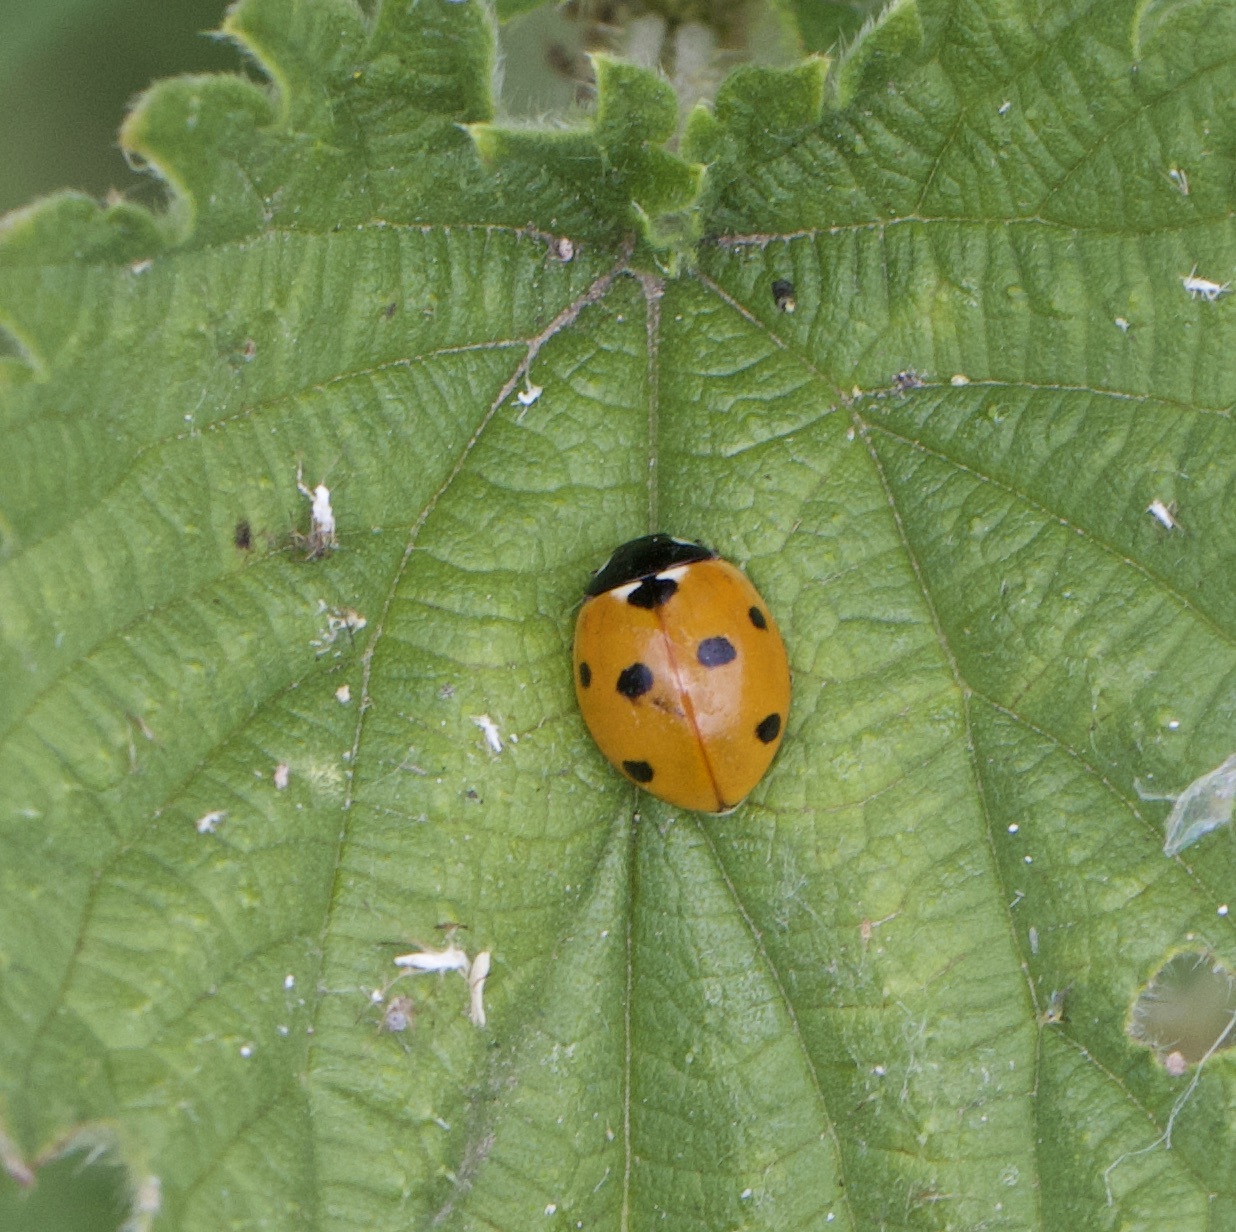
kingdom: Animalia
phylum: Arthropoda
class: Insecta
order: Coleoptera
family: Coccinellidae
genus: Coccinella
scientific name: Coccinella septempunctata
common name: Sevenspotted lady beetle
